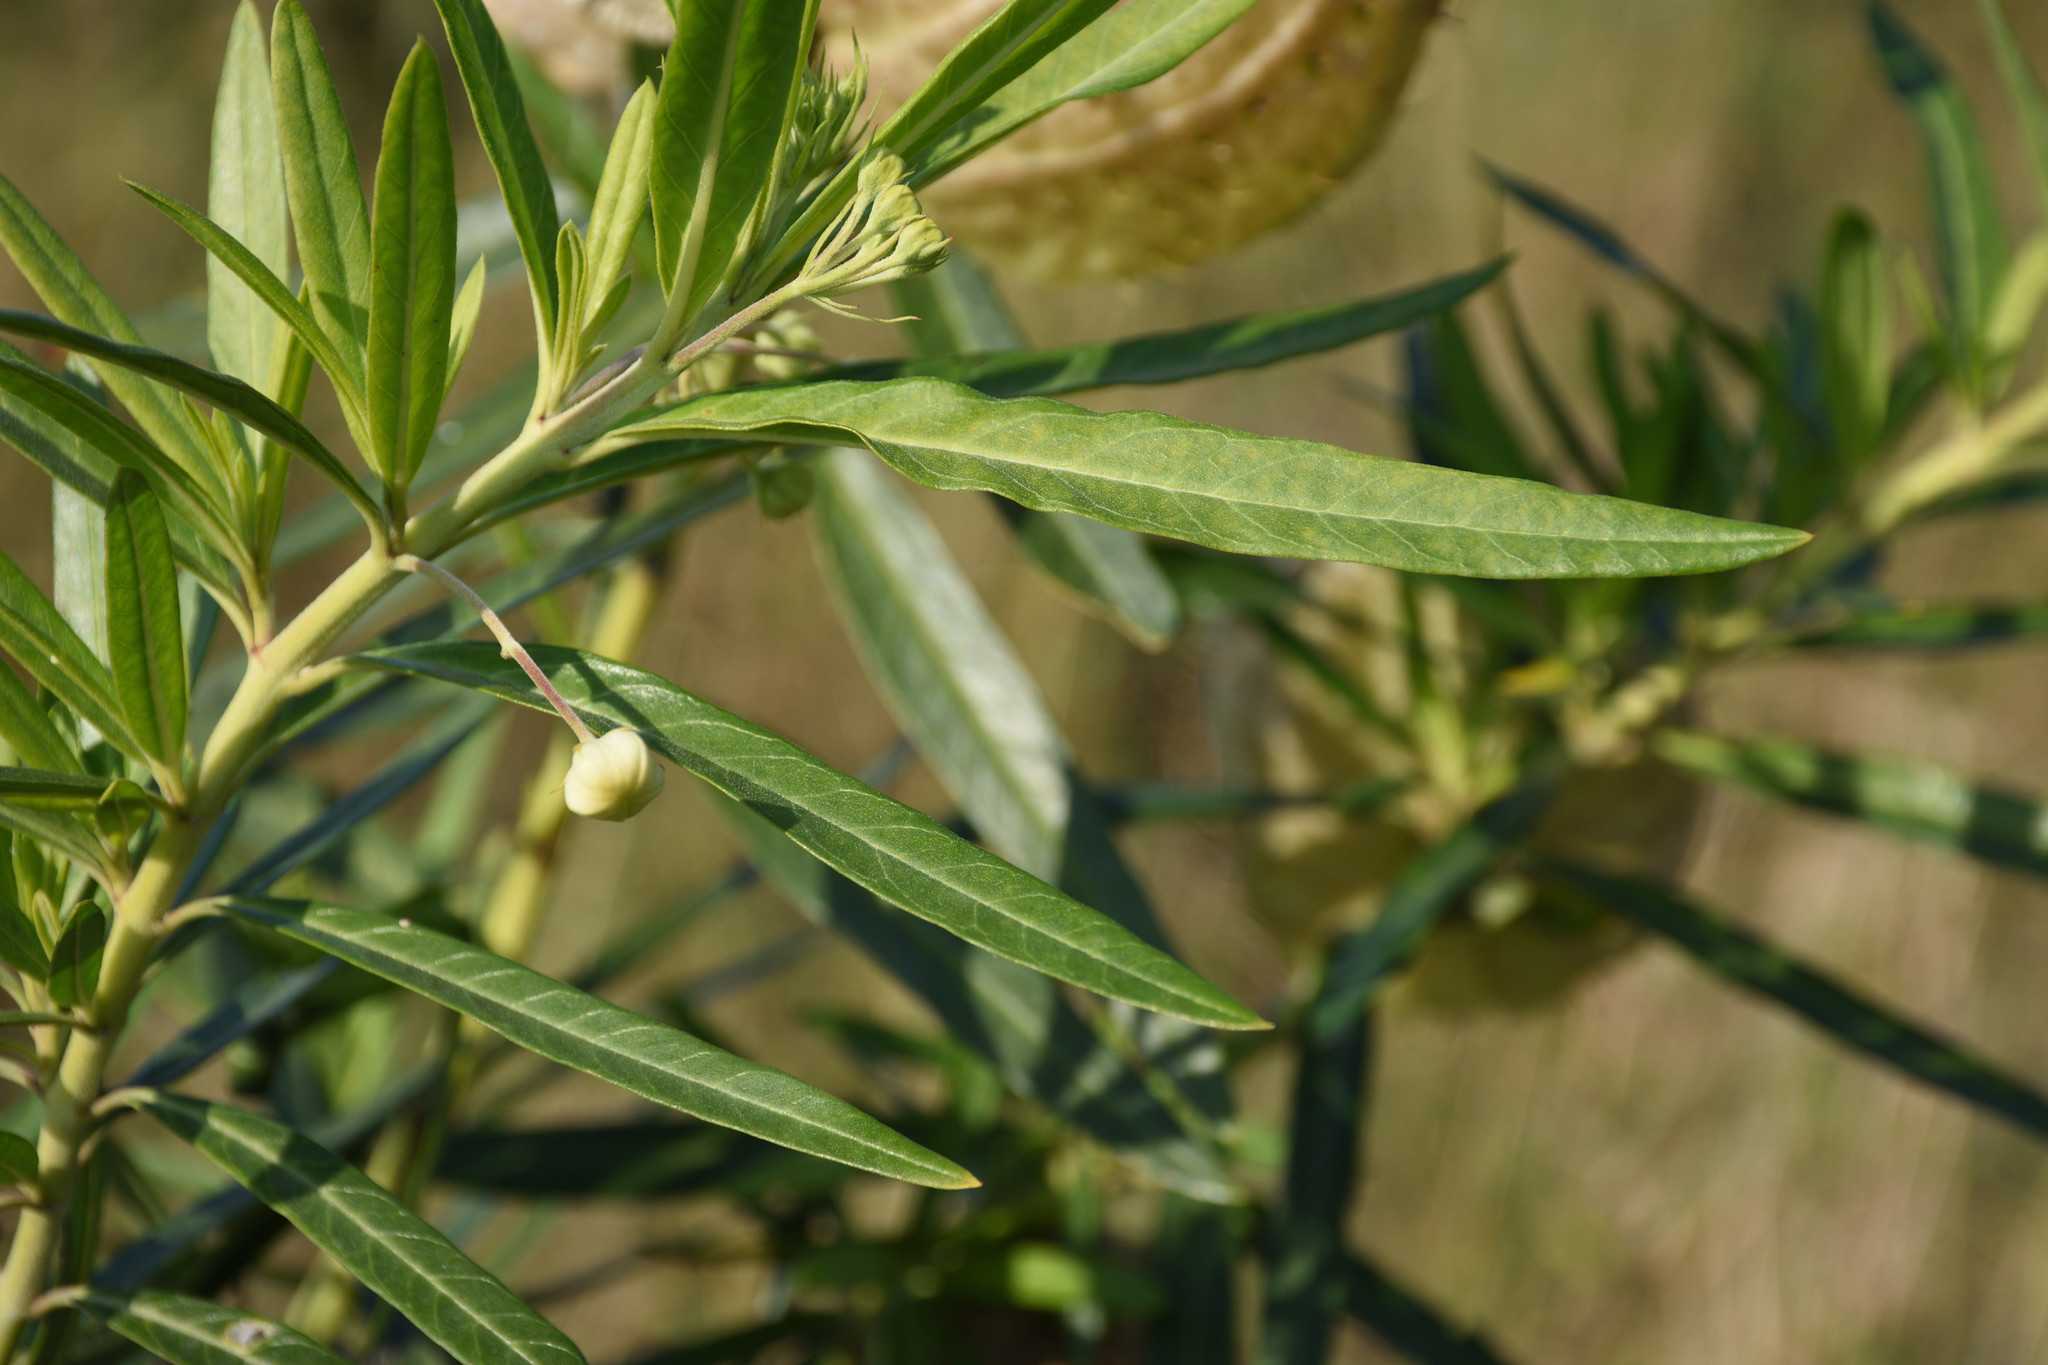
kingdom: Plantae
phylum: Tracheophyta
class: Magnoliopsida
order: Gentianales
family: Apocynaceae
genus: Gomphocarpus
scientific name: Gomphocarpus physocarpus
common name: Balloon cotton bush
